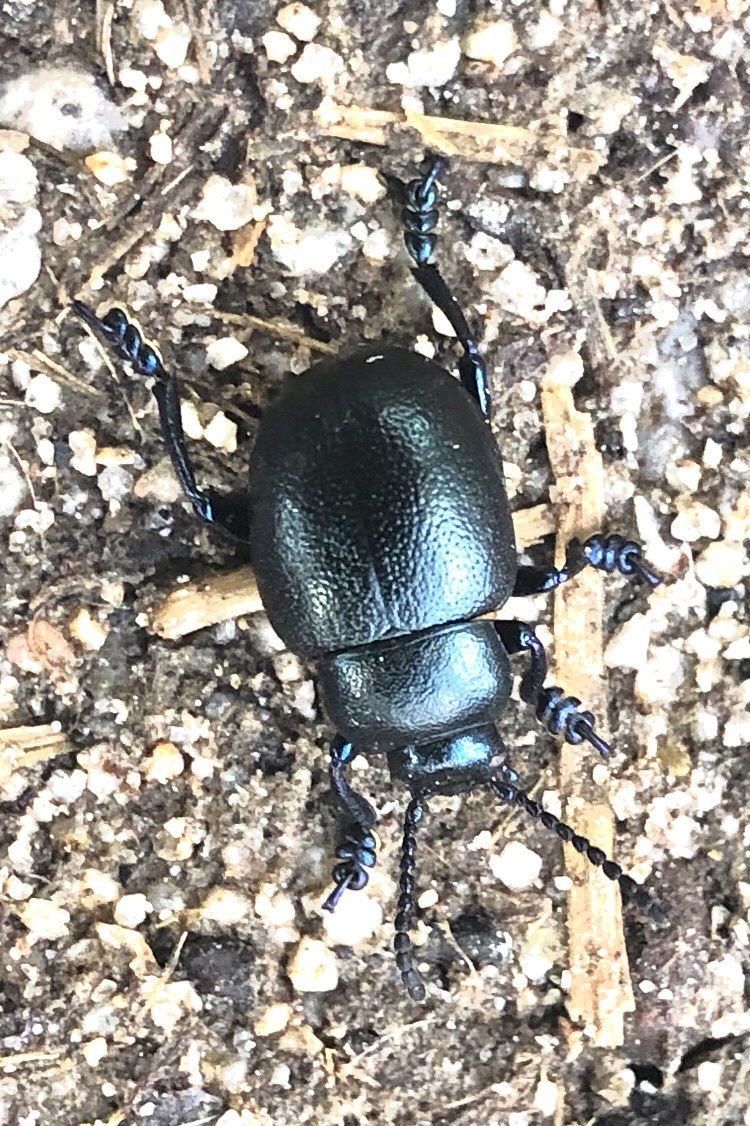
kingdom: Animalia
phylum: Arthropoda
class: Insecta
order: Coleoptera
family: Chrysomelidae
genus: Timarcha
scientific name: Timarcha goettingensis
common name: Small bloody-nosed beetle
